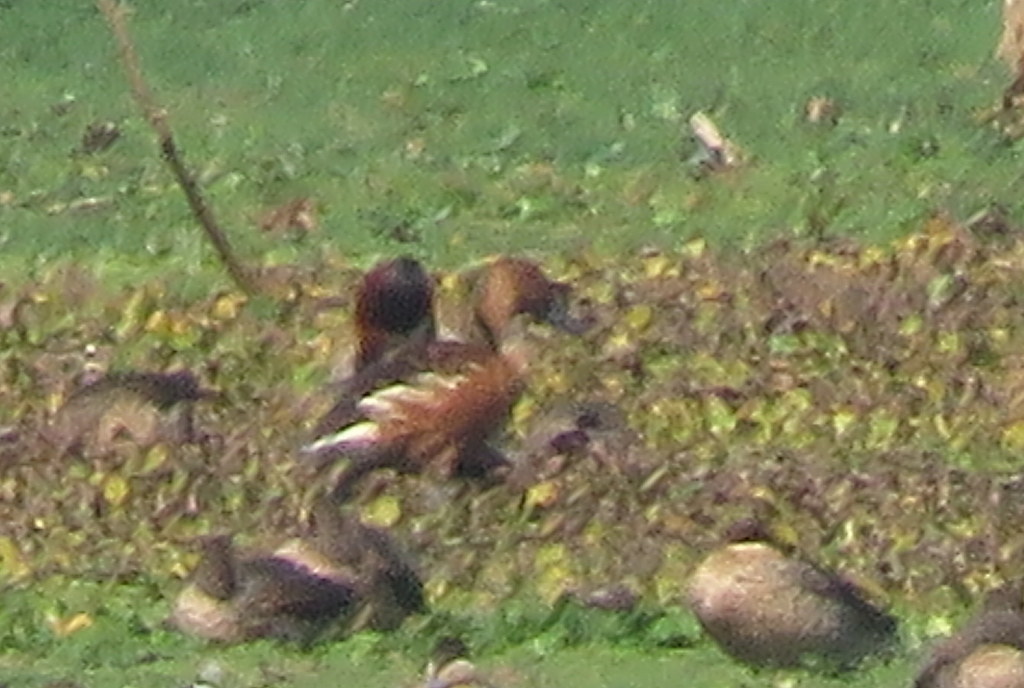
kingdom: Animalia
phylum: Chordata
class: Aves
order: Anseriformes
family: Anatidae
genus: Dendrocygna
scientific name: Dendrocygna bicolor
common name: Fulvous whistling duck
